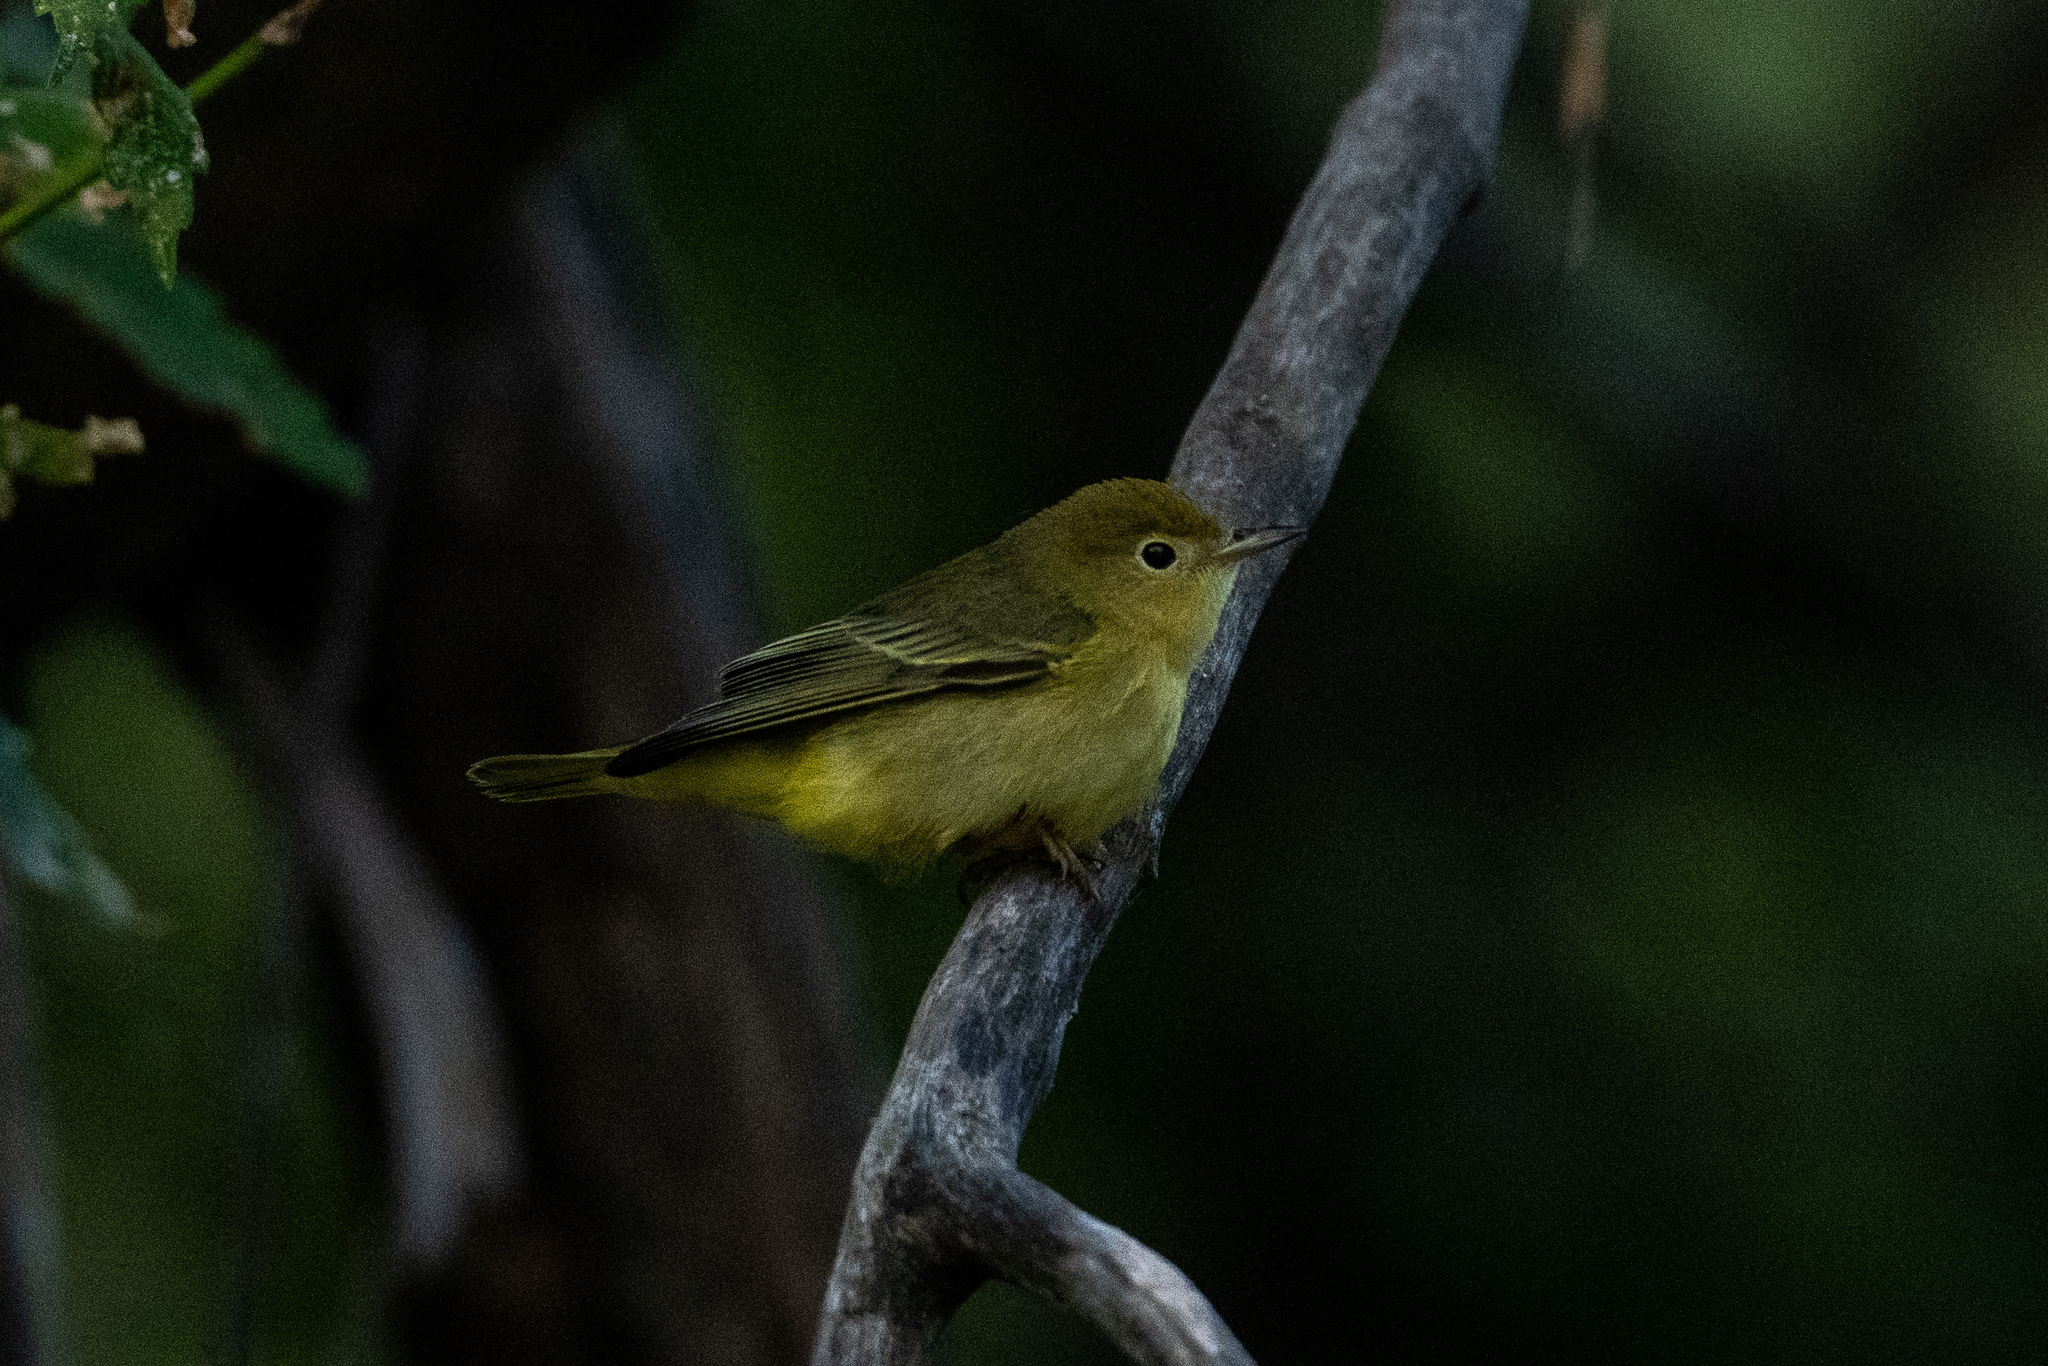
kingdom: Animalia
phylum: Chordata
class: Aves
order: Passeriformes
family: Parulidae
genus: Setophaga
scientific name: Setophaga petechia
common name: Yellow warbler
